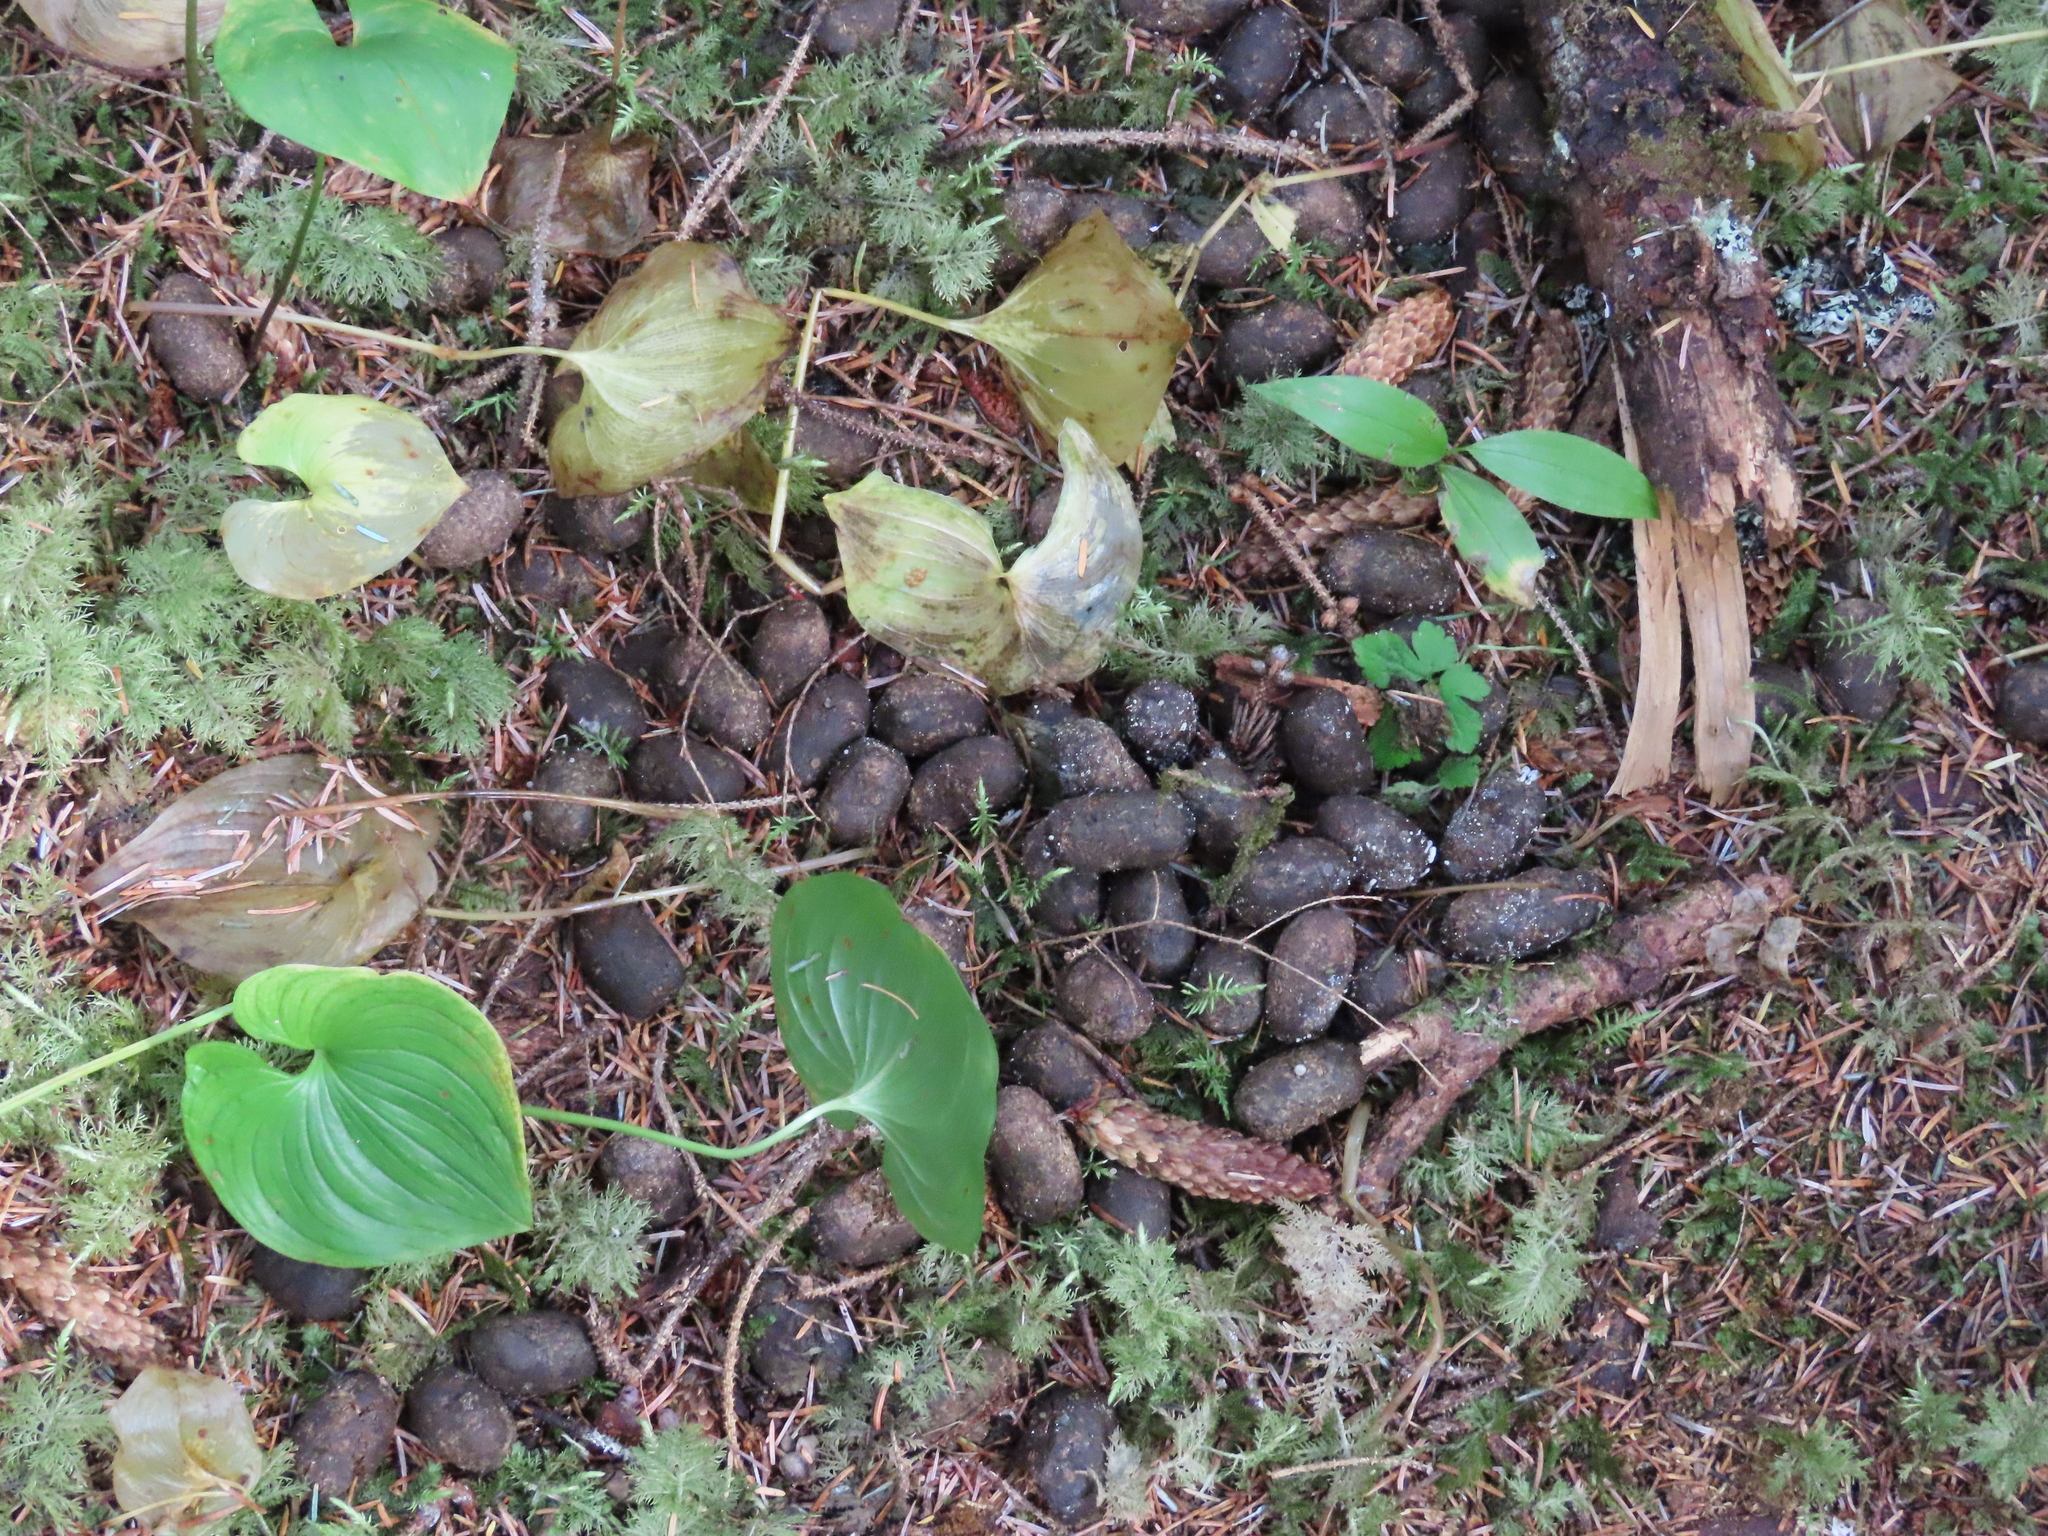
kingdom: Animalia
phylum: Chordata
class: Mammalia
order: Artiodactyla
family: Cervidae
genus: Alces
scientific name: Alces alces
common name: Moose
